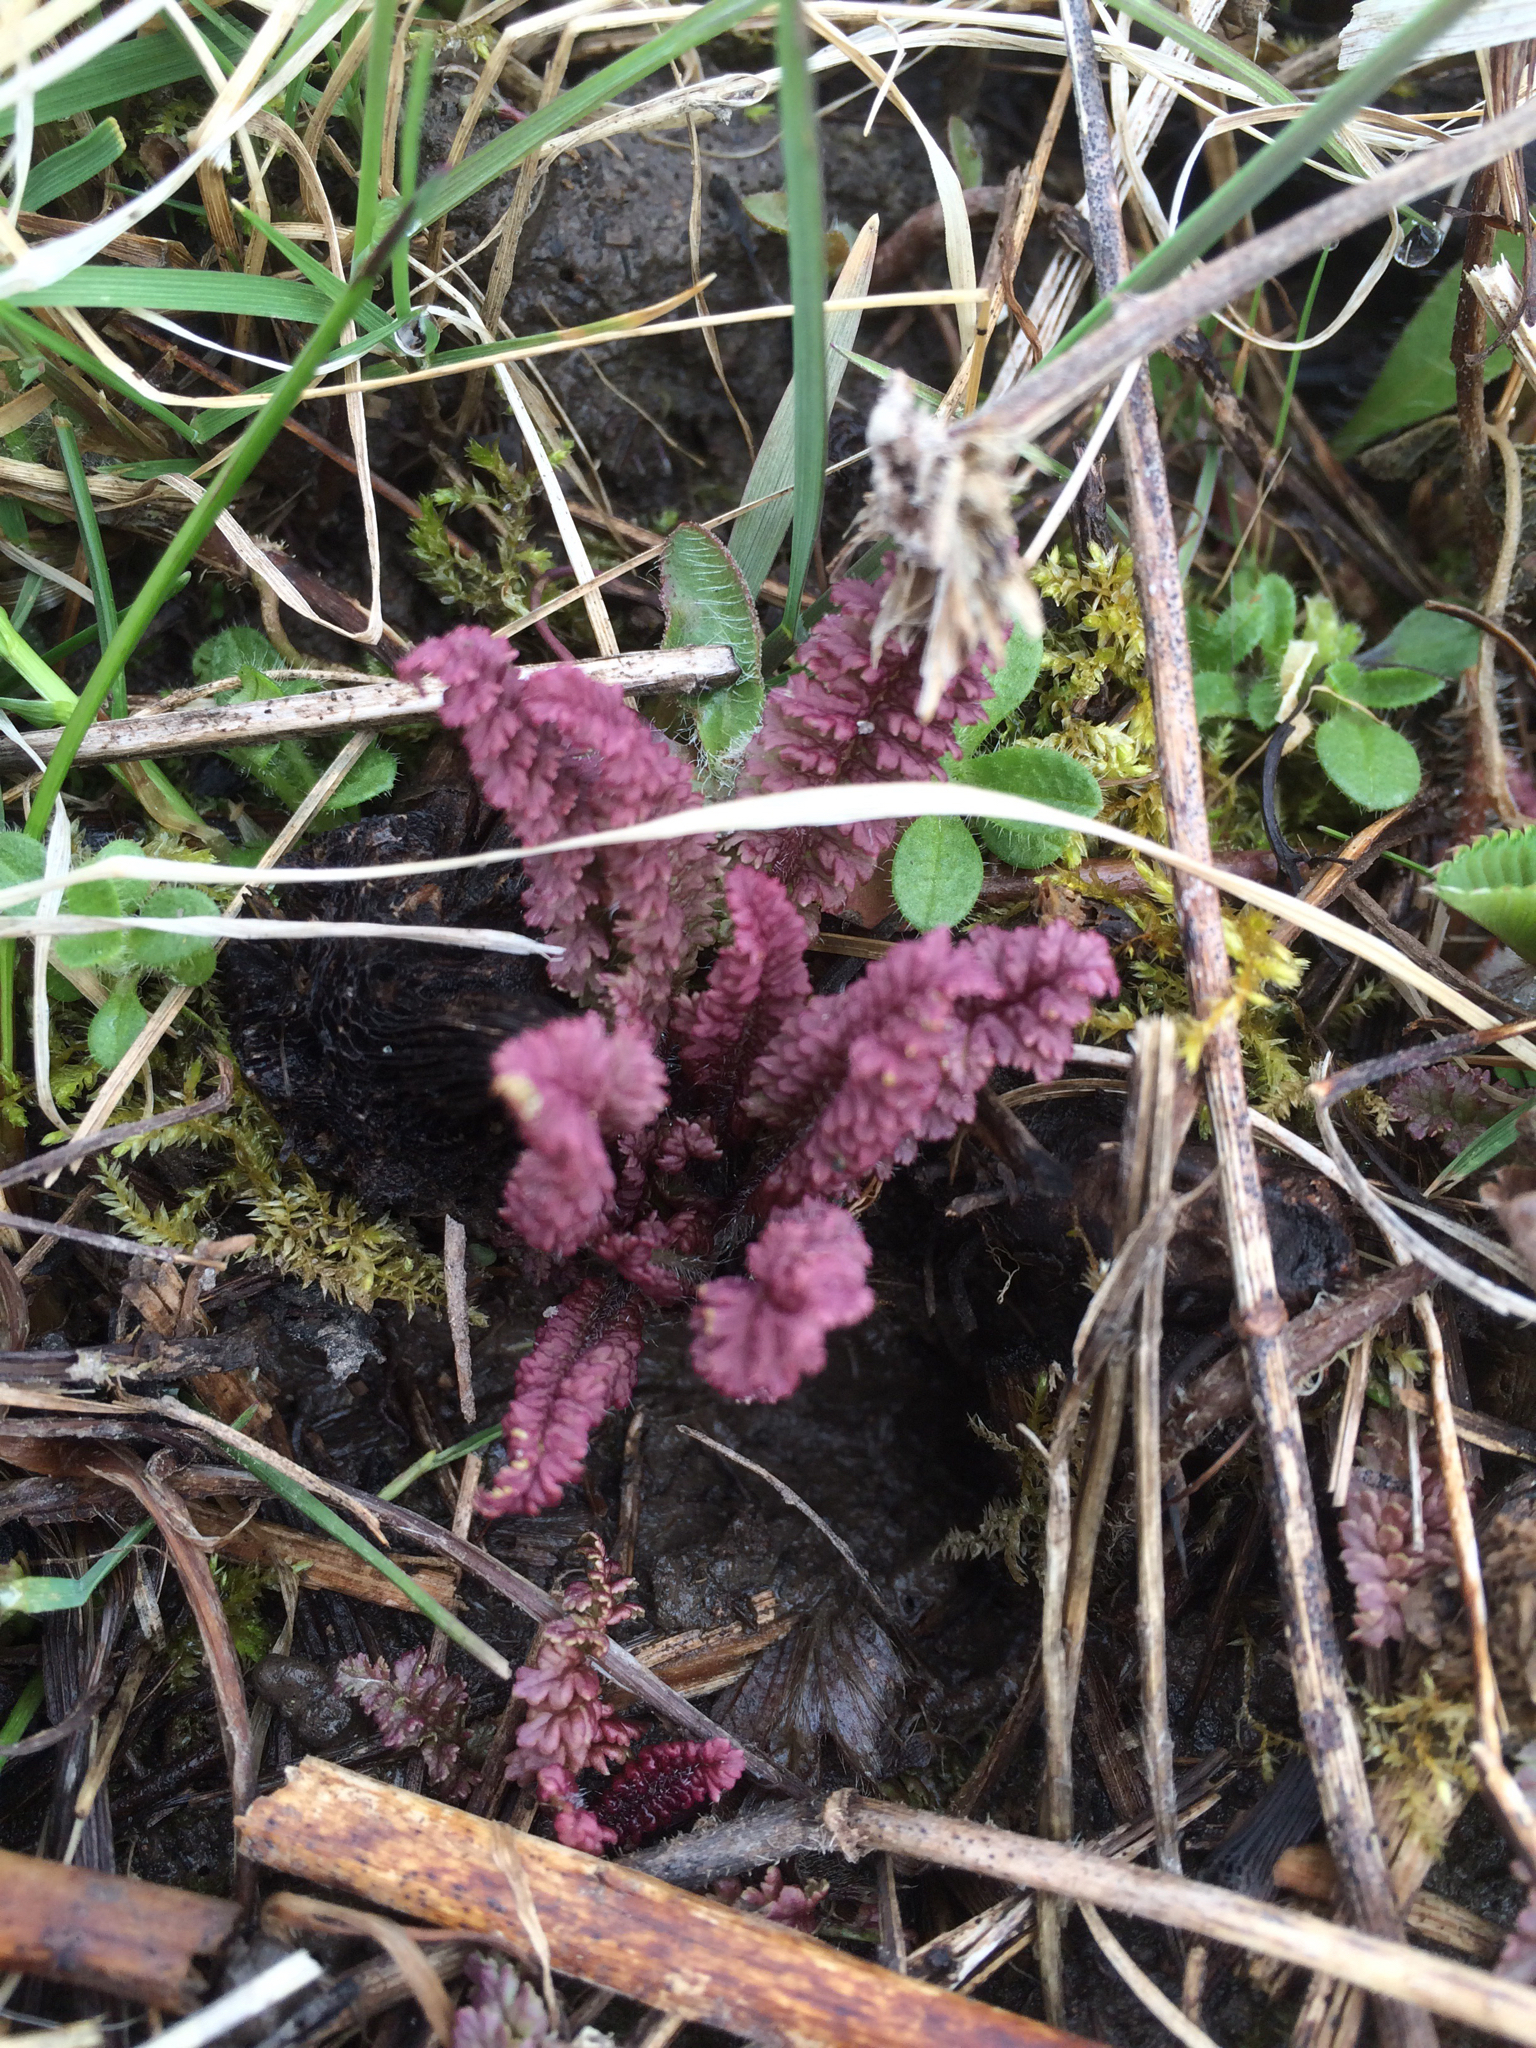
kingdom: Plantae
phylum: Tracheophyta
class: Magnoliopsida
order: Lamiales
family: Orobanchaceae
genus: Pedicularis
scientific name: Pedicularis canadensis
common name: Early lousewort
